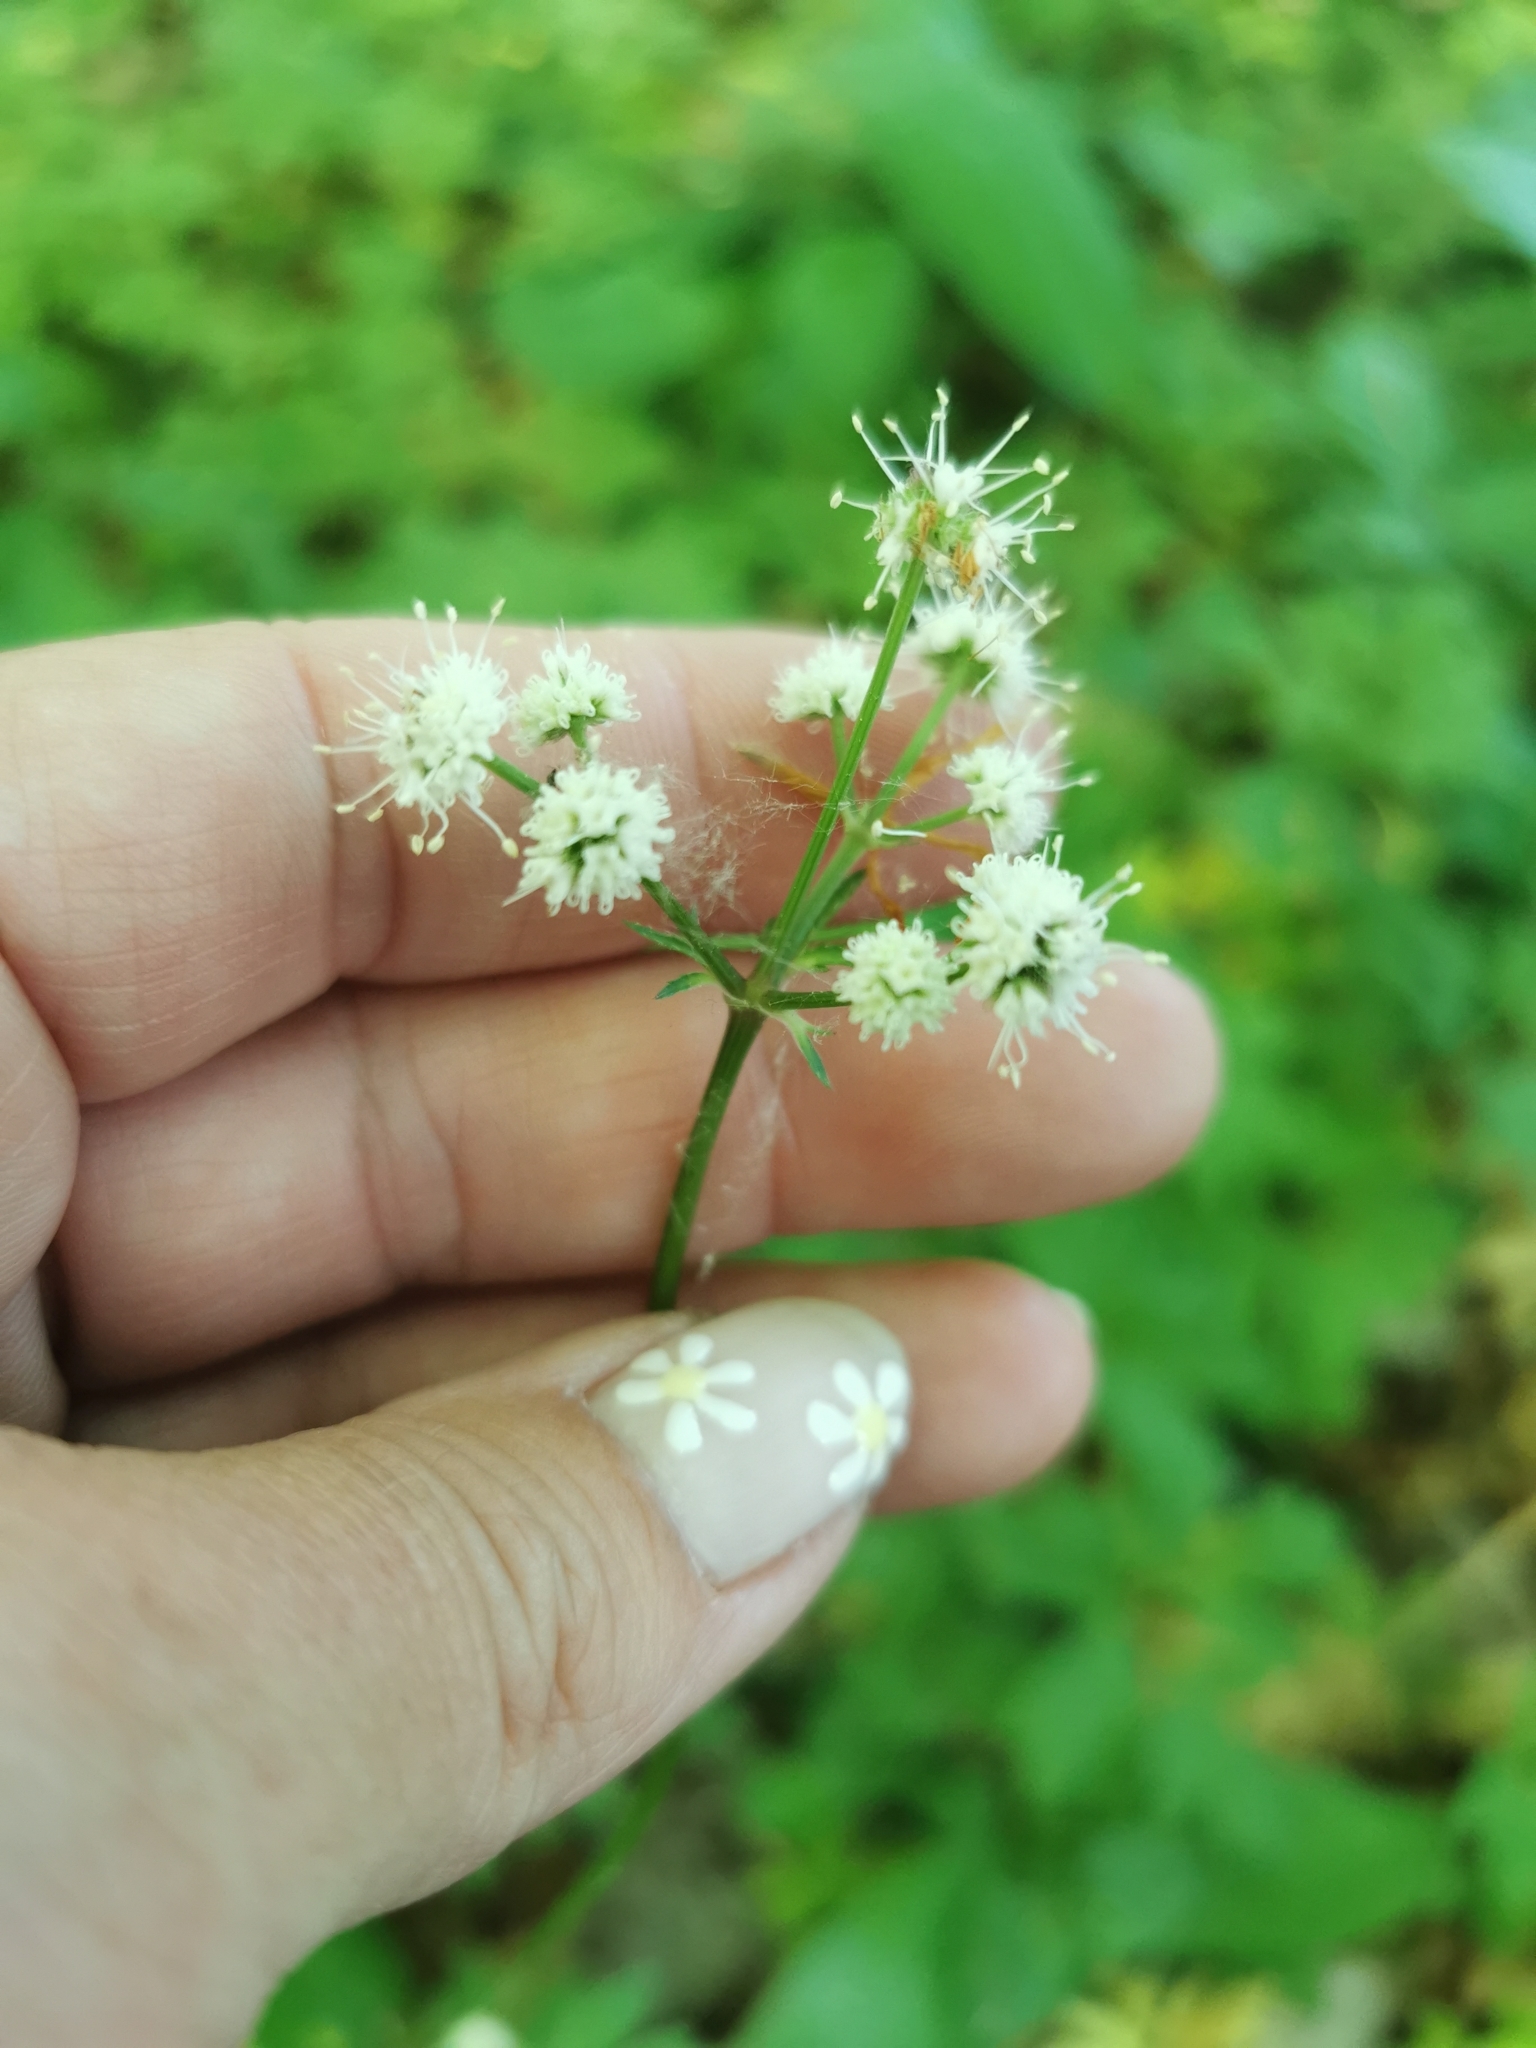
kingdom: Plantae
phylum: Tracheophyta
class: Magnoliopsida
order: Apiales
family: Apiaceae
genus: Sanicula
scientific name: Sanicula europaea
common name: Sanicle
